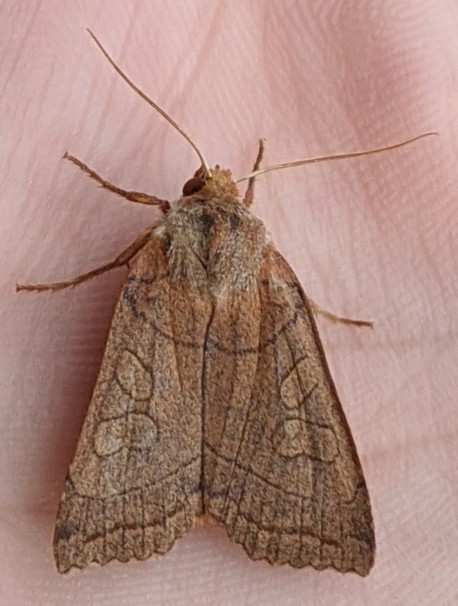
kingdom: Animalia
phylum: Arthropoda
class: Insecta
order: Lepidoptera
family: Noctuidae
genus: Metaxaglaea
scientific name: Metaxaglaea inulta
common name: Unsated sallow
